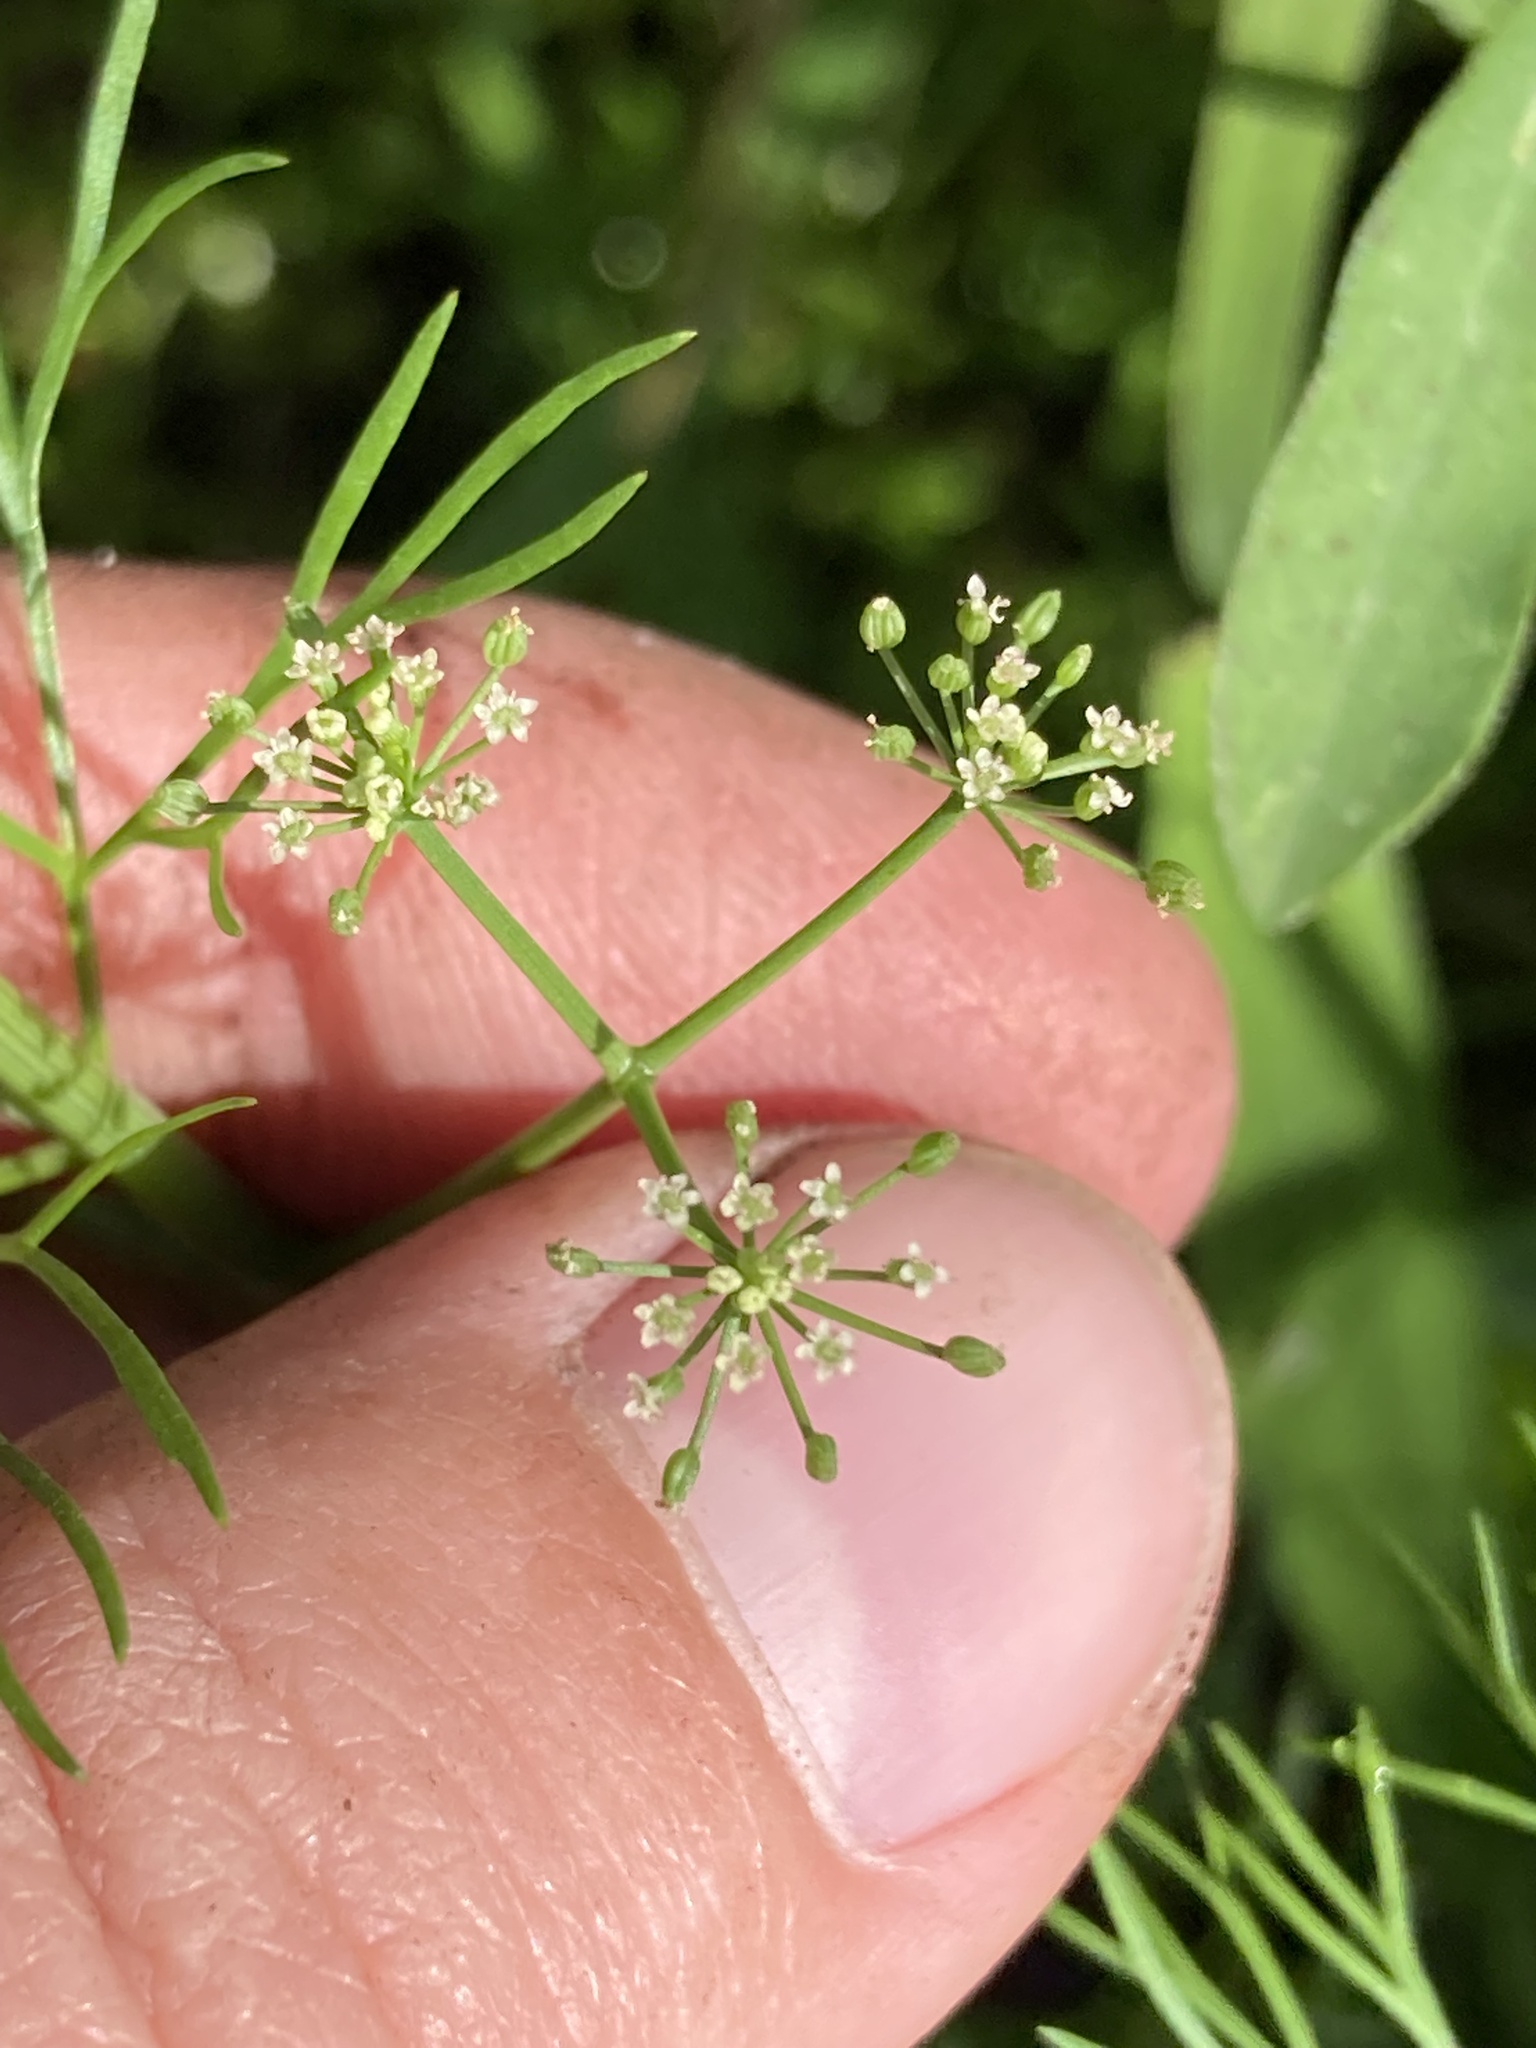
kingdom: Plantae
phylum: Tracheophyta
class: Magnoliopsida
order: Apiales
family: Apiaceae
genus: Ptilimnium
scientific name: Ptilimnium capillaceum
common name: Herbwilliam
